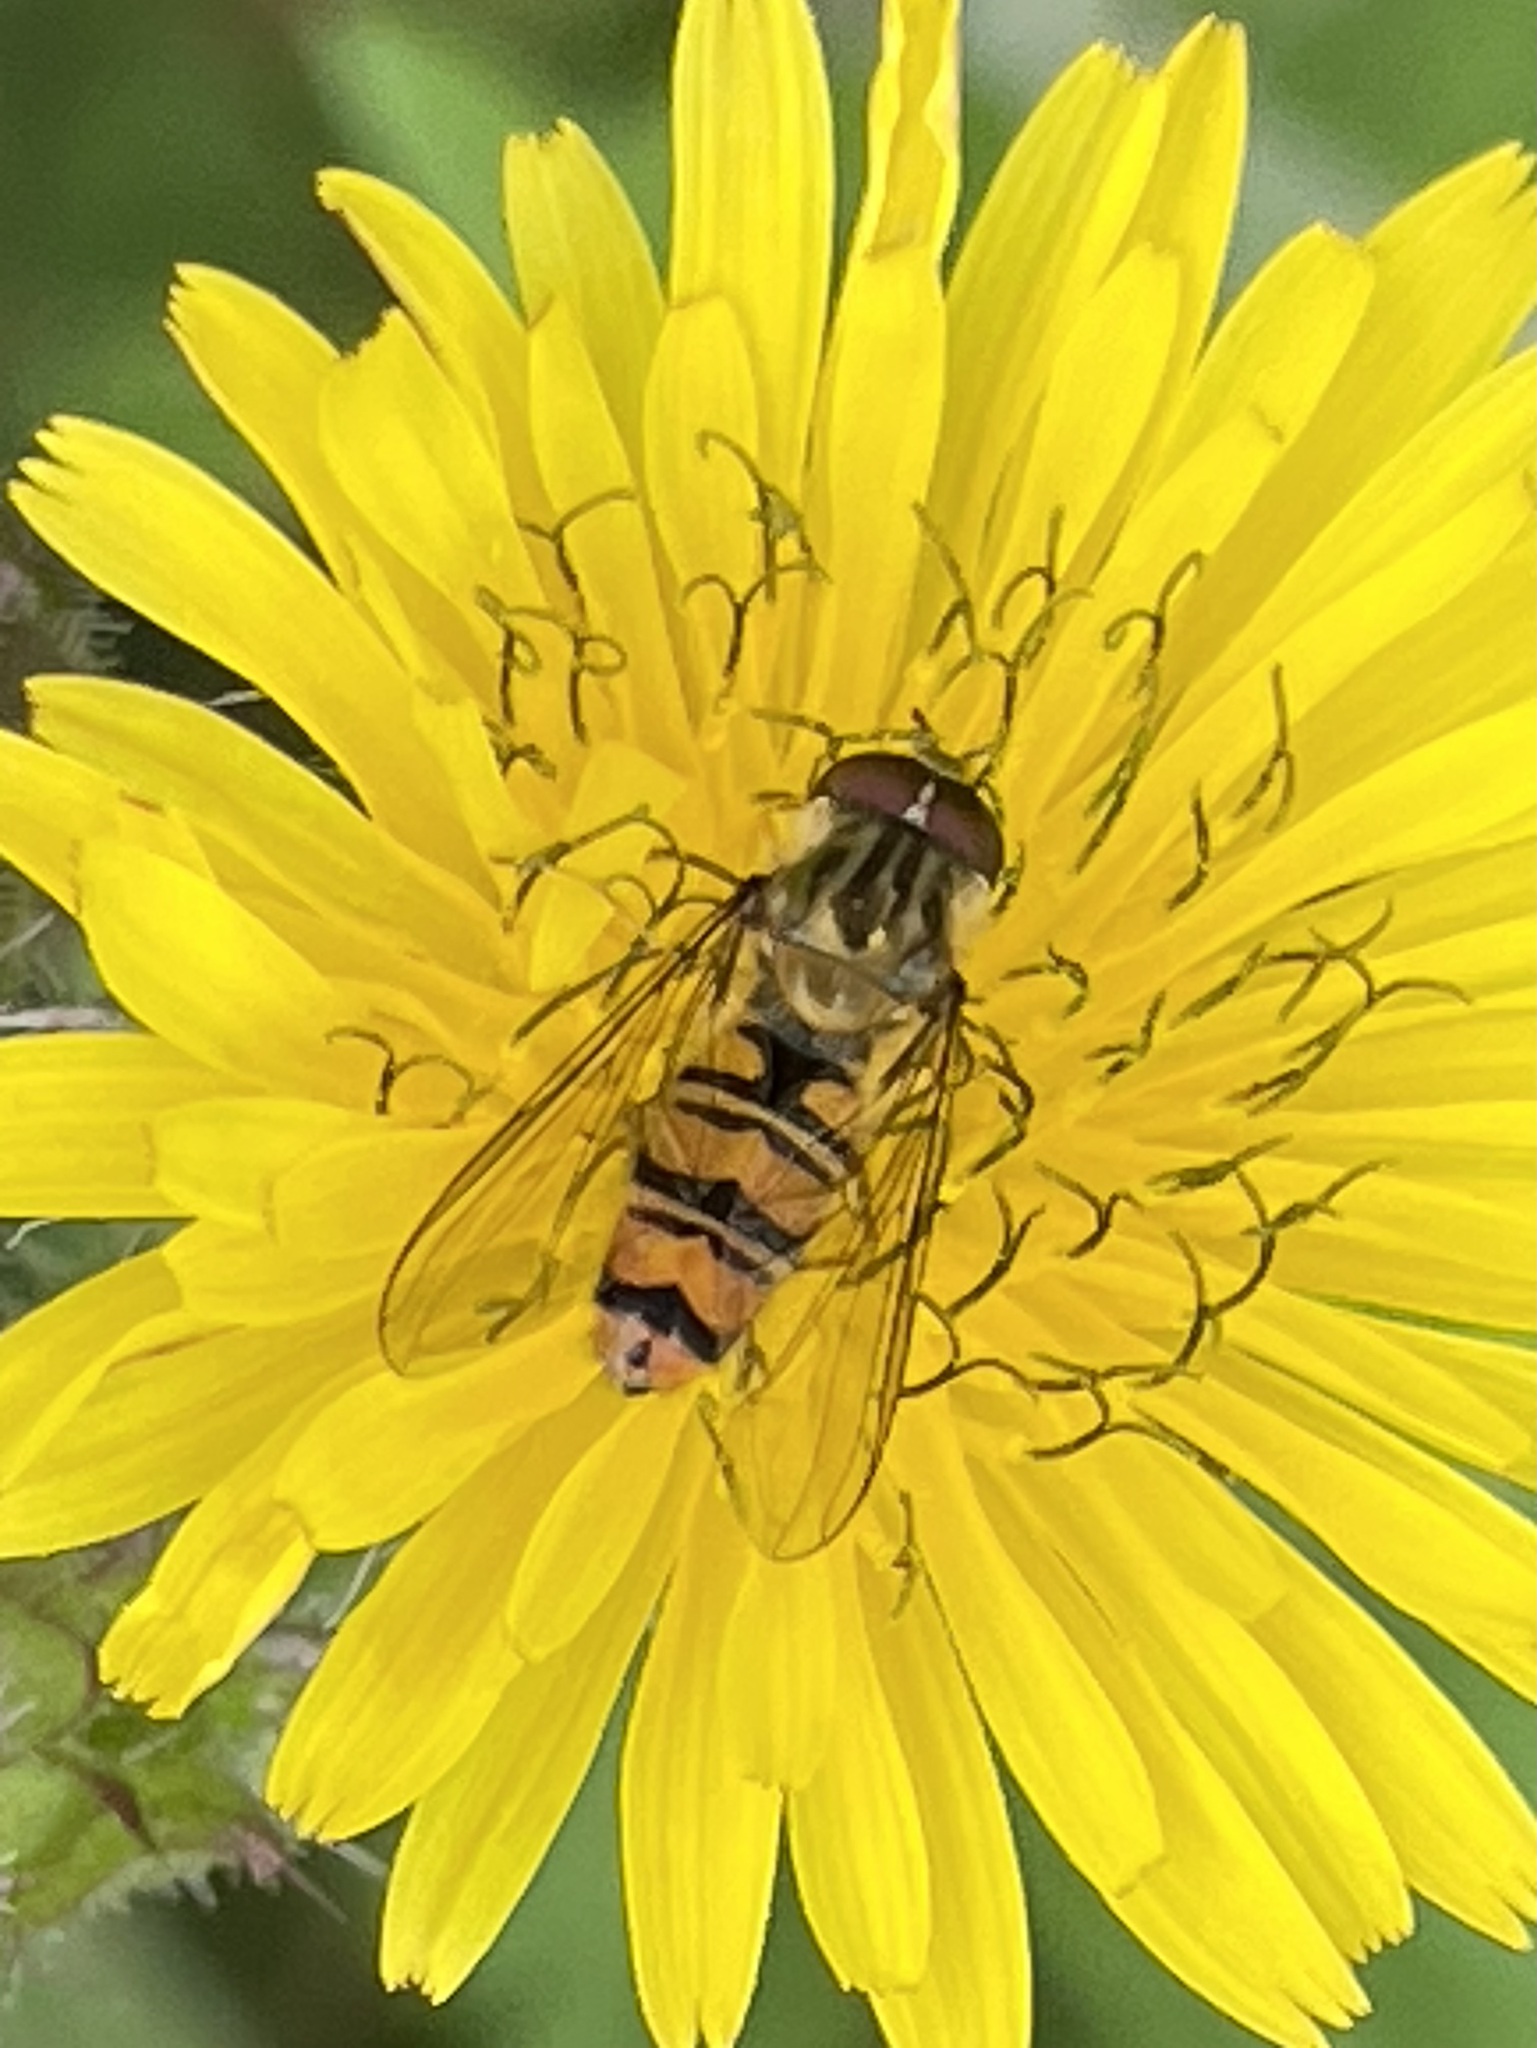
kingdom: Animalia
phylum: Arthropoda
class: Insecta
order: Diptera
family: Syrphidae
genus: Episyrphus
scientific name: Episyrphus balteatus
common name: Marmalade hoverfly
